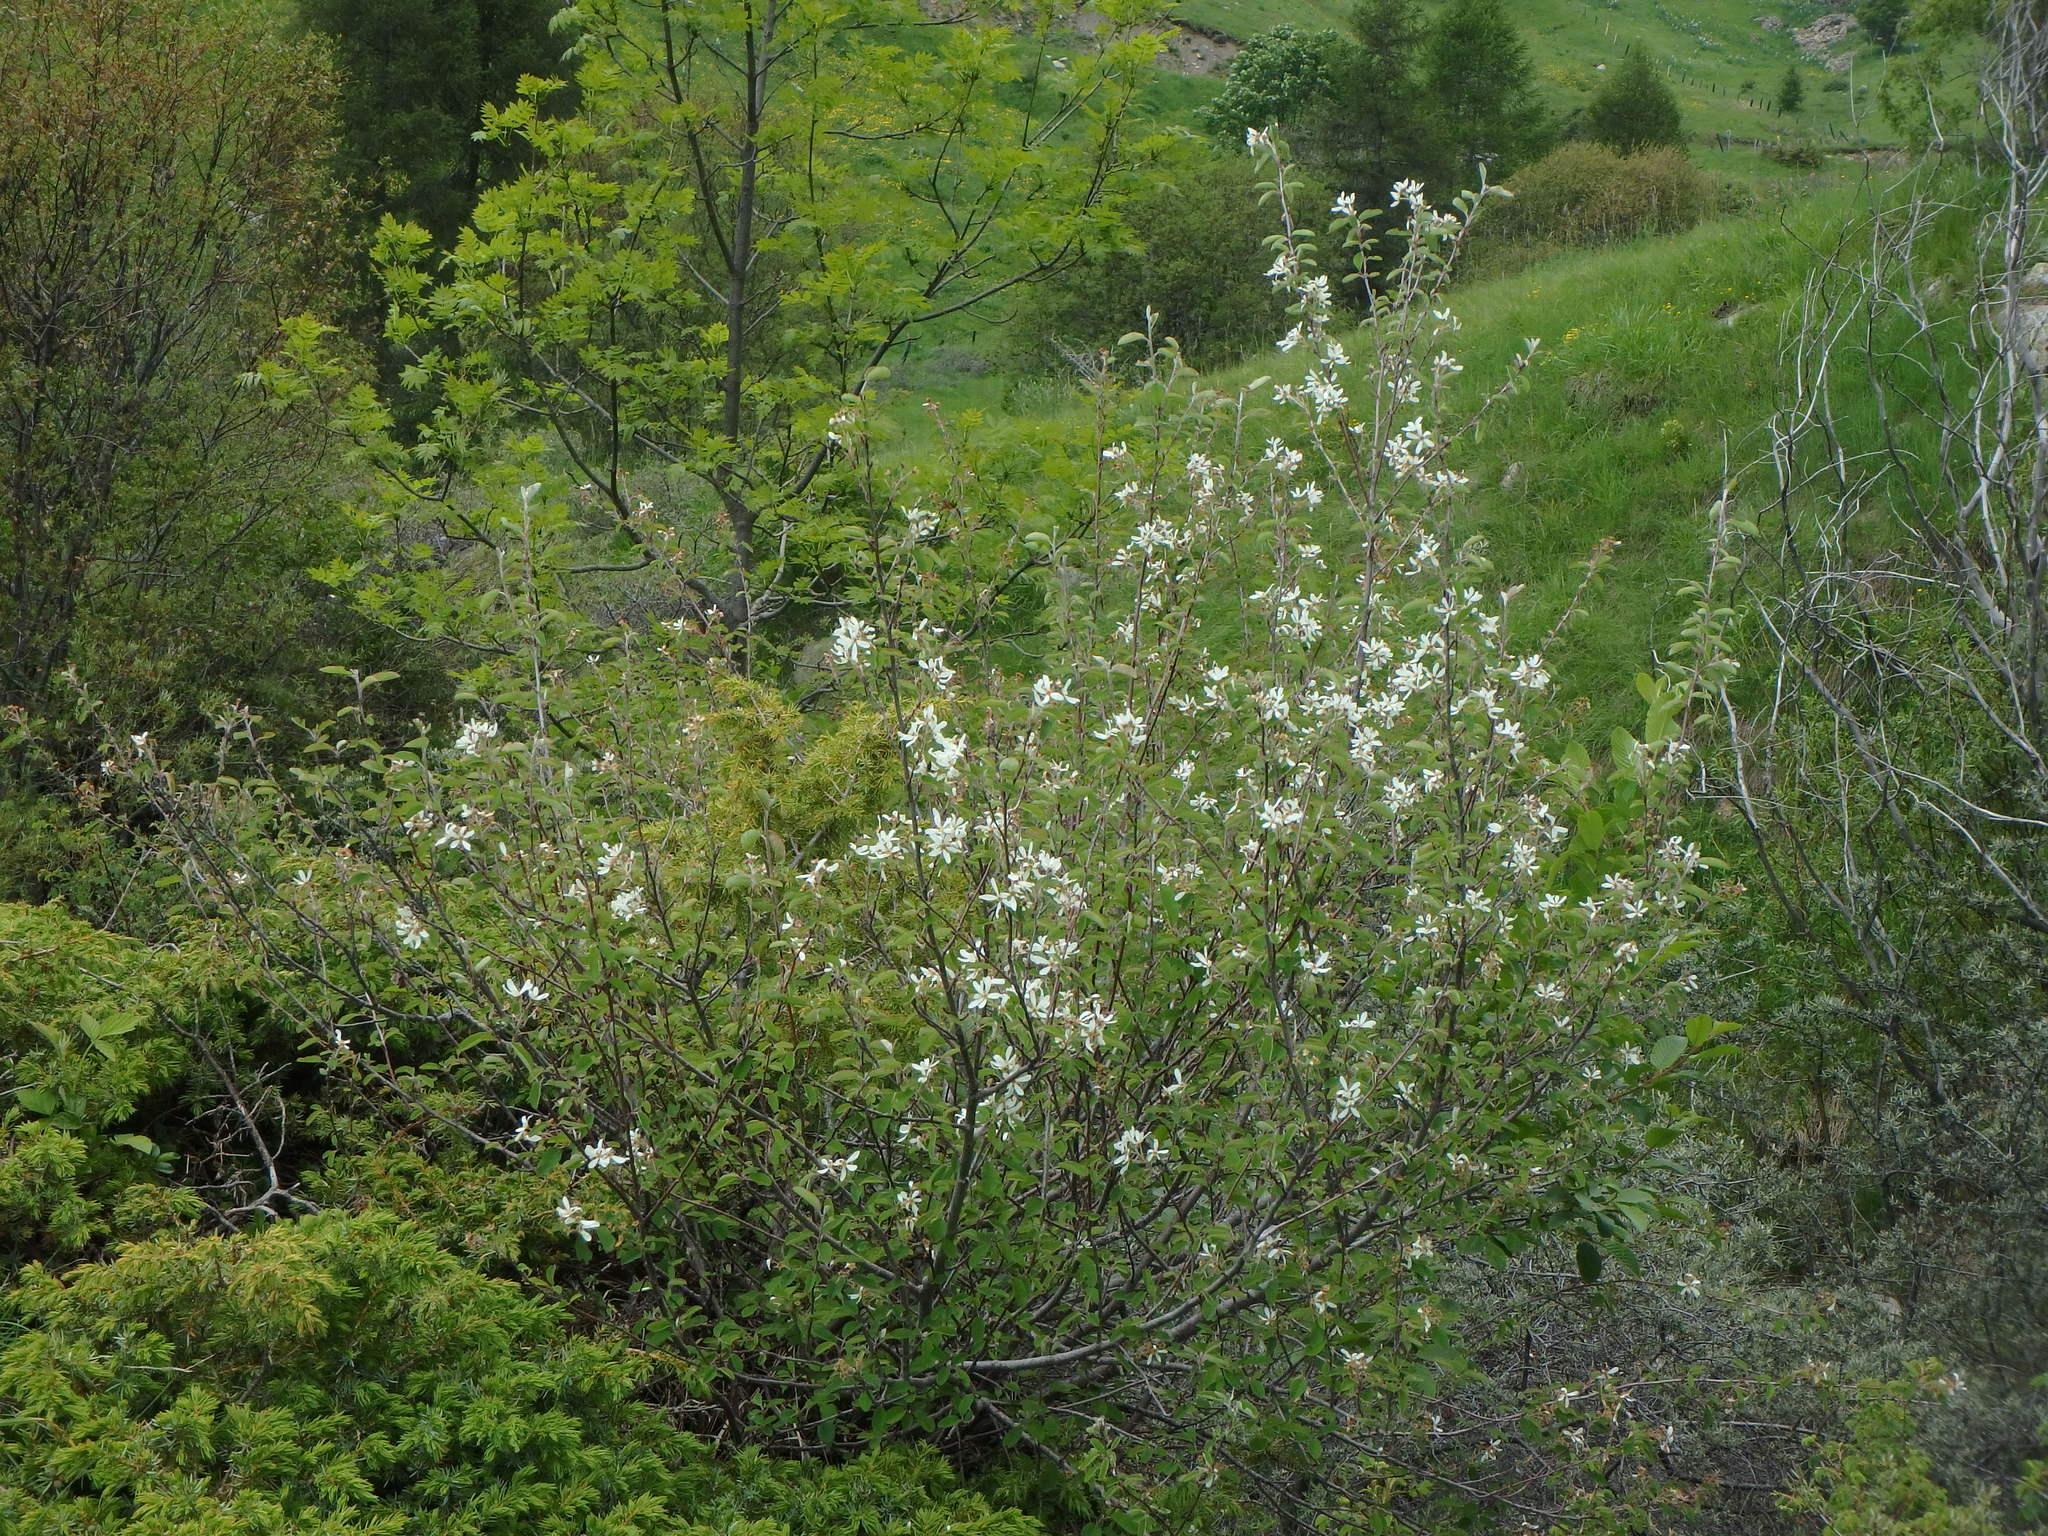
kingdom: Plantae
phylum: Tracheophyta
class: Magnoliopsida
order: Rosales
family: Rosaceae
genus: Amelanchier
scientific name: Amelanchier ovalis
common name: Serviceberry
